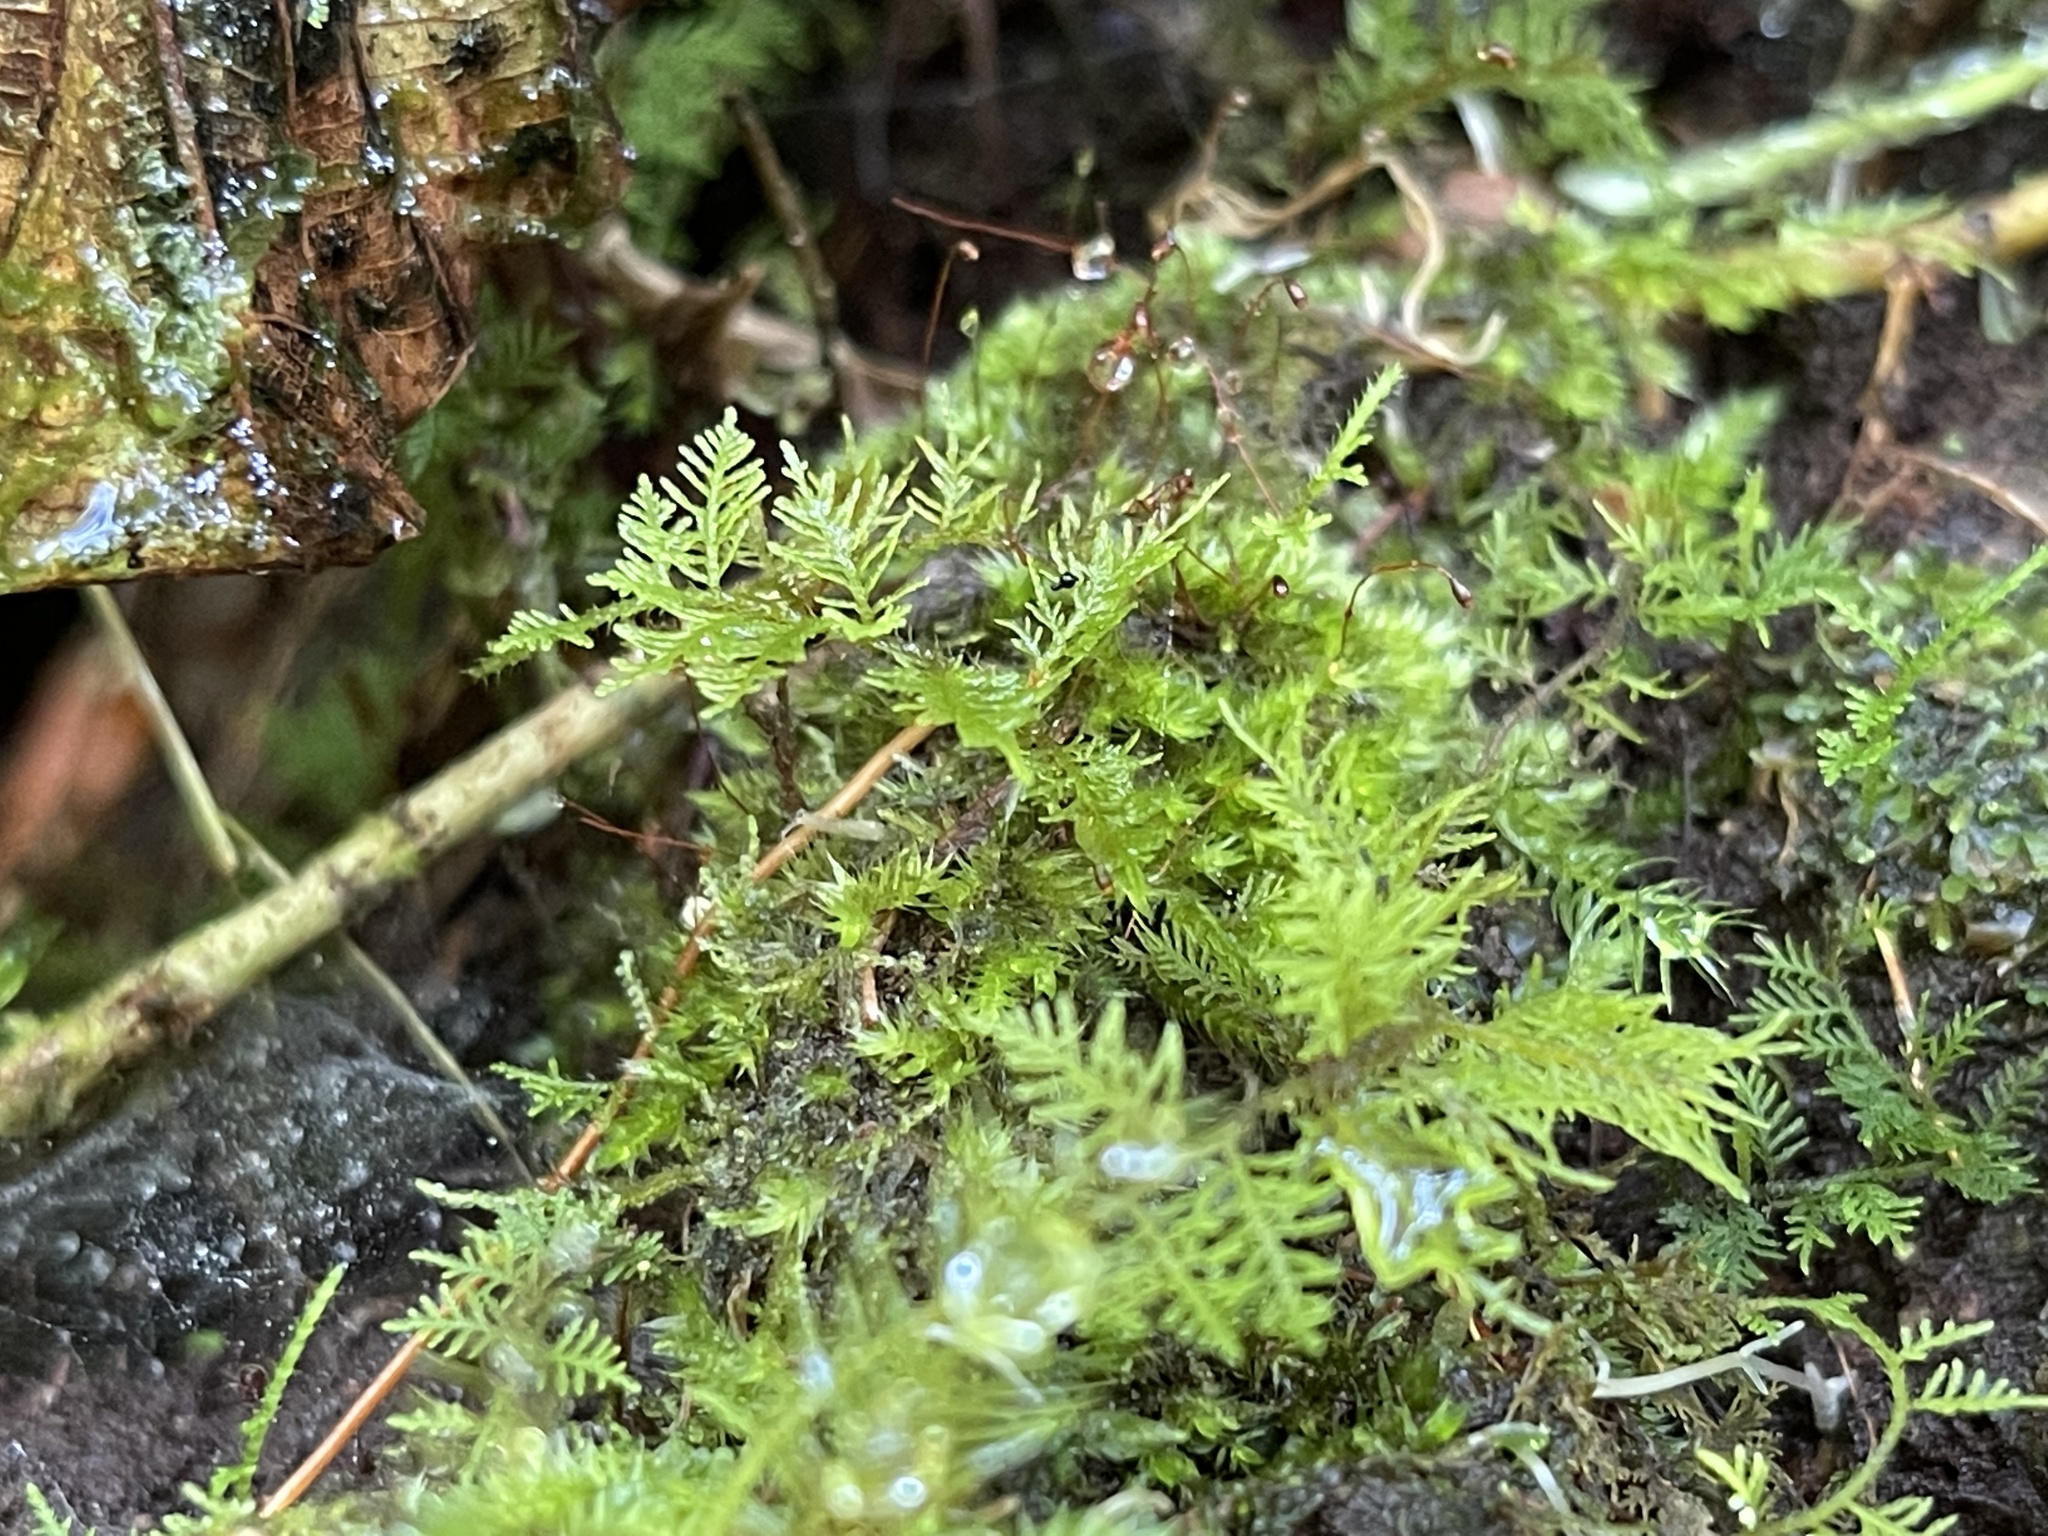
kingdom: Plantae
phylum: Bryophyta
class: Bryopsida
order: Hypnales
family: Thuidiaceae
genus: Thuidium
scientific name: Thuidium urceolatum
